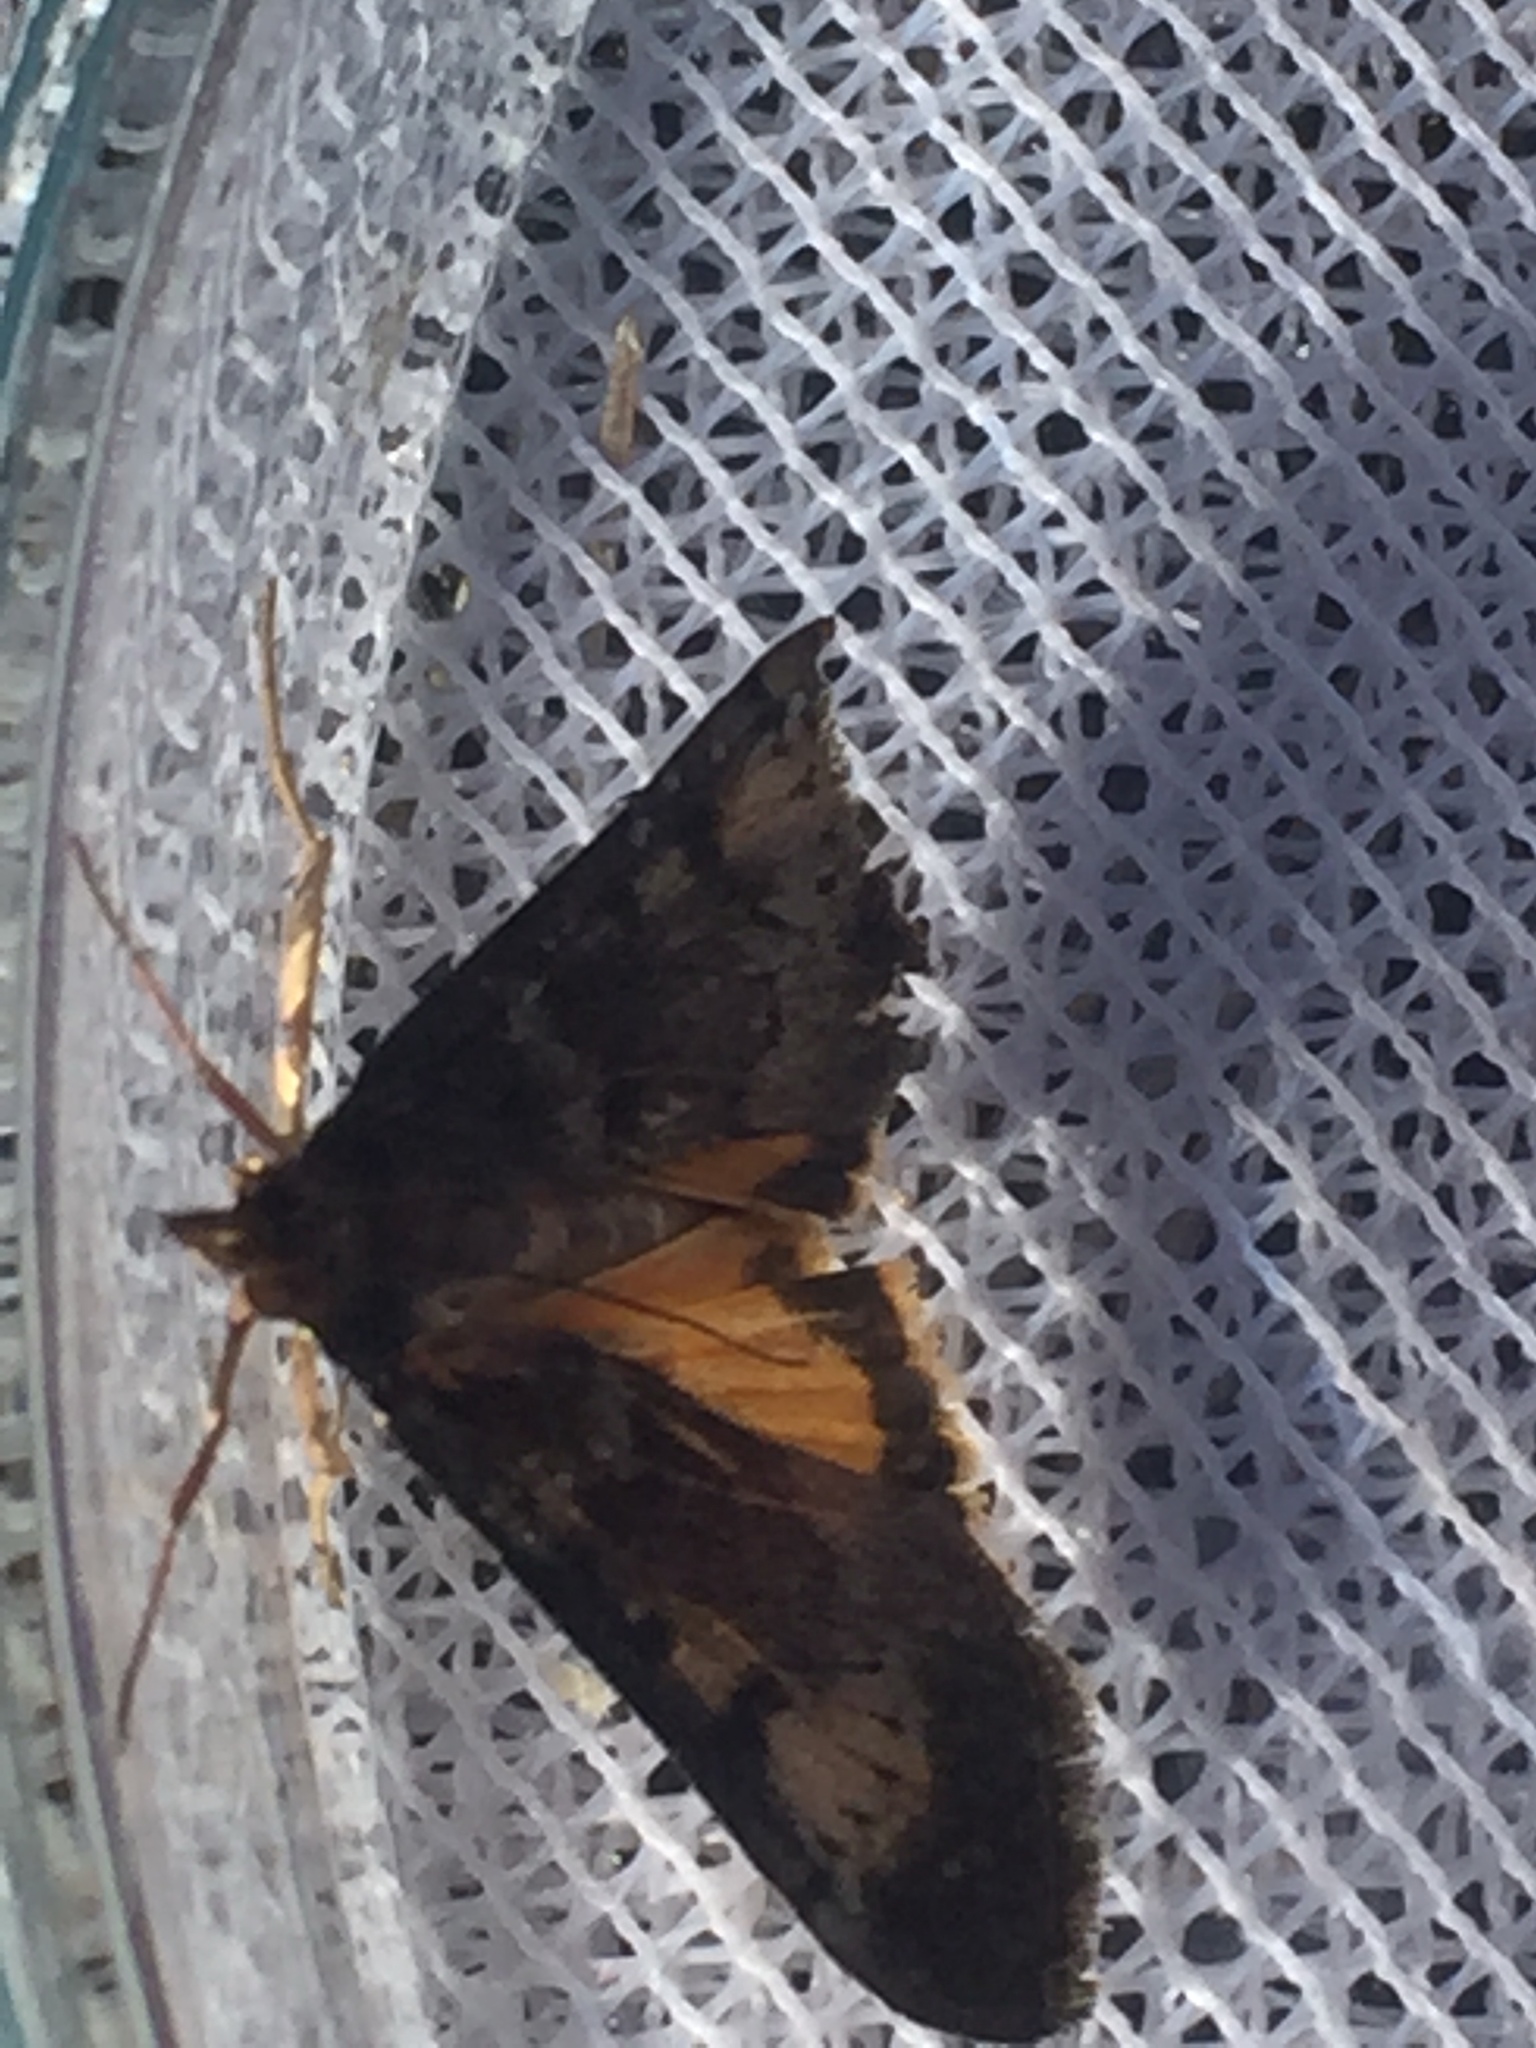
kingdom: Animalia
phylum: Arthropoda
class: Insecta
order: Lepidoptera
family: Crambidae
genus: Uresiphita
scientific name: Uresiphita gilvata
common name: Yellow-underwing pearl
